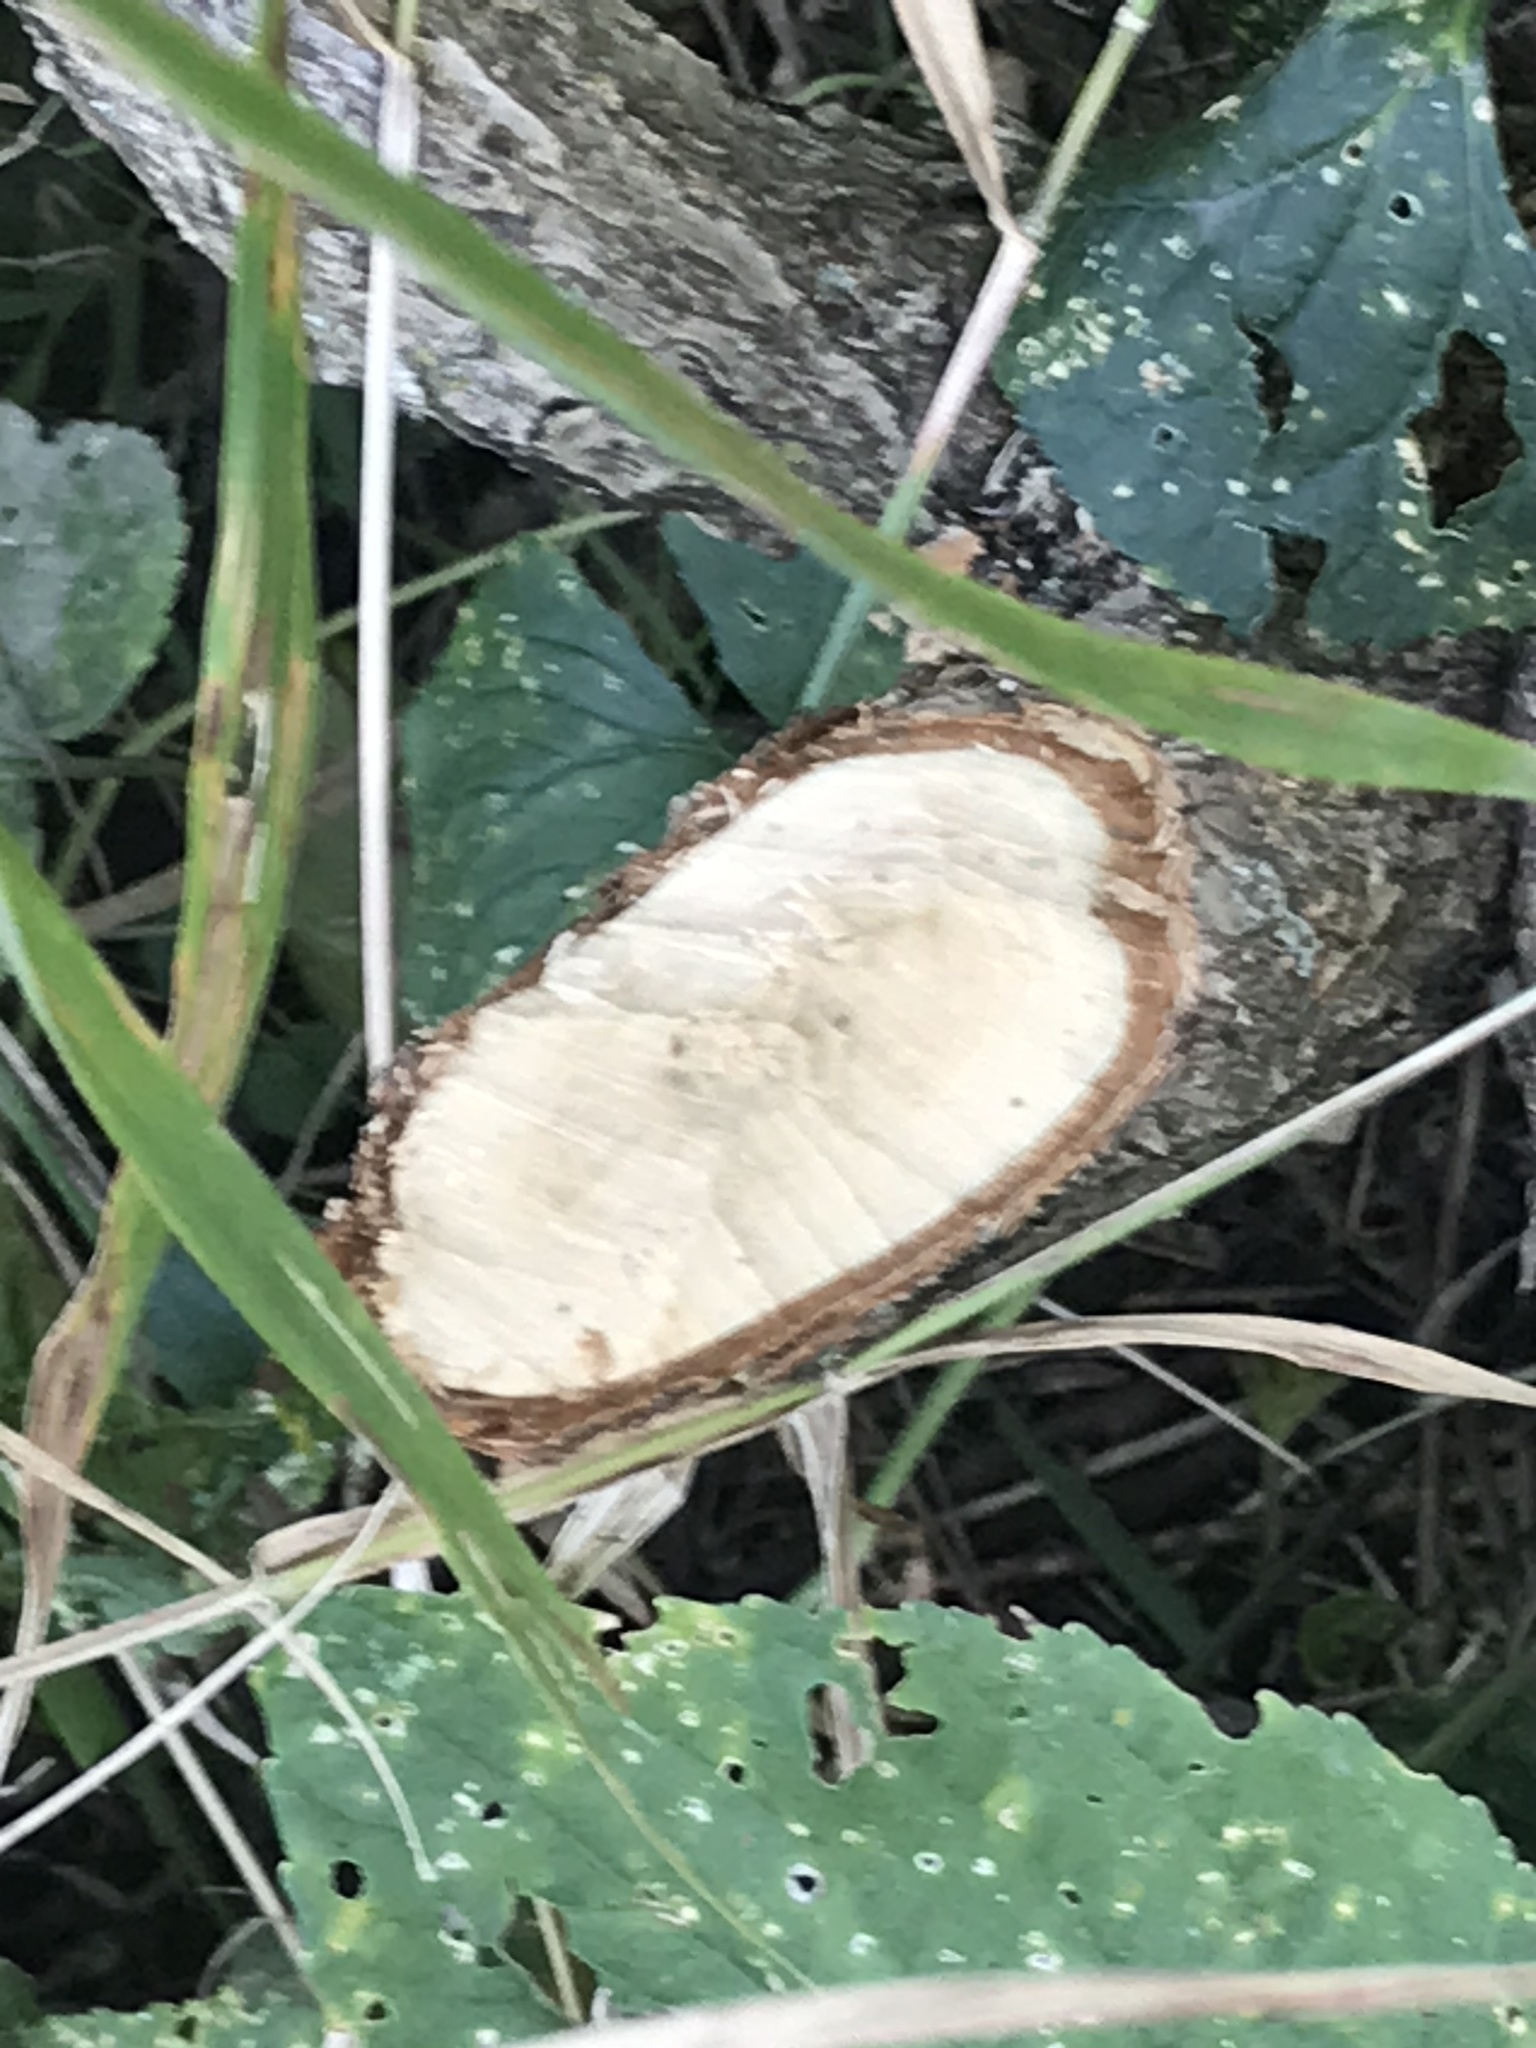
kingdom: Animalia
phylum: Chordata
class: Mammalia
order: Rodentia
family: Castoridae
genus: Castor
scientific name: Castor canadensis
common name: American beaver
